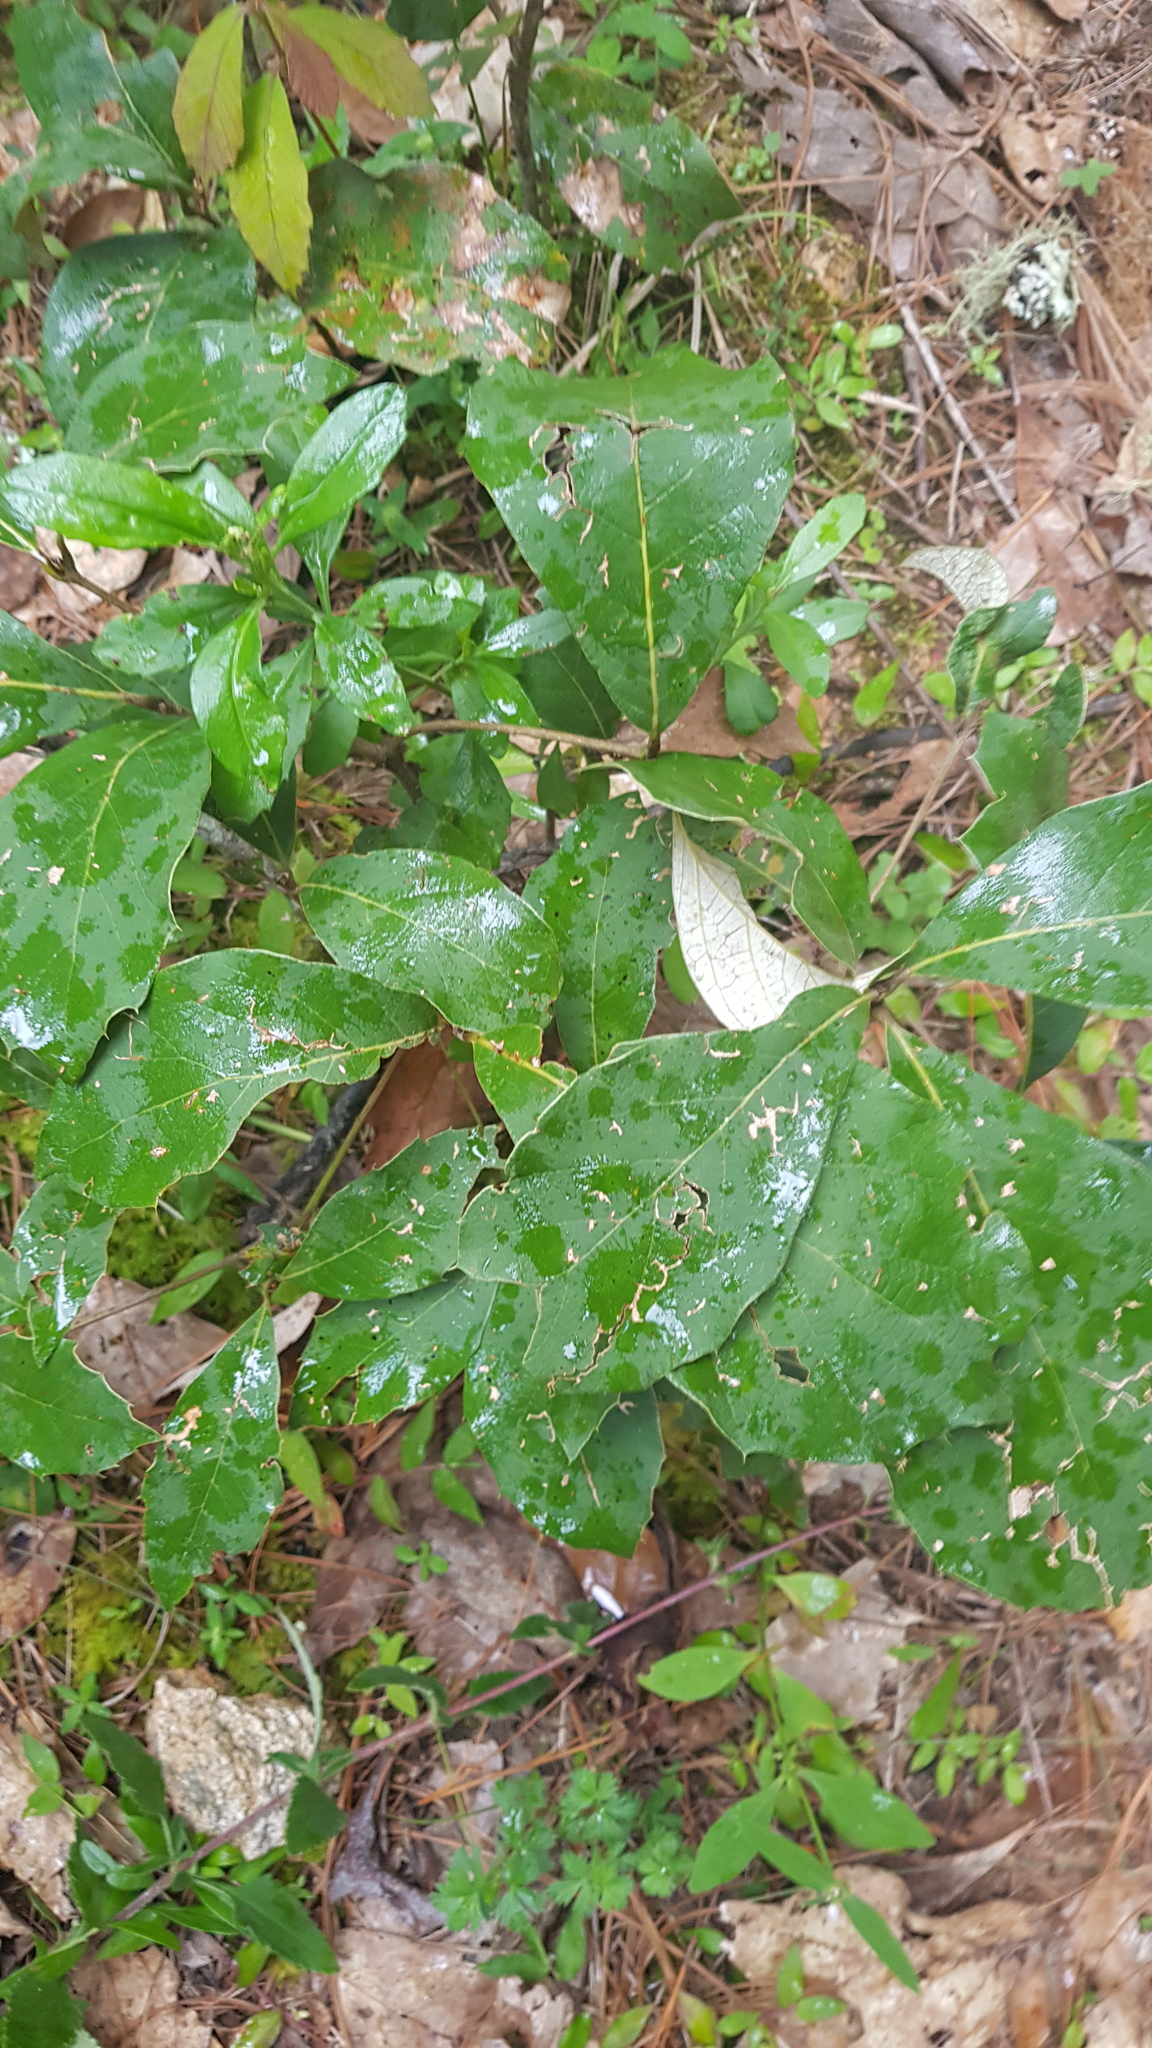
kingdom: Plantae
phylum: Tracheophyta
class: Magnoliopsida
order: Fagales
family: Fagaceae
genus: Quercus
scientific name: Quercus calophylla
